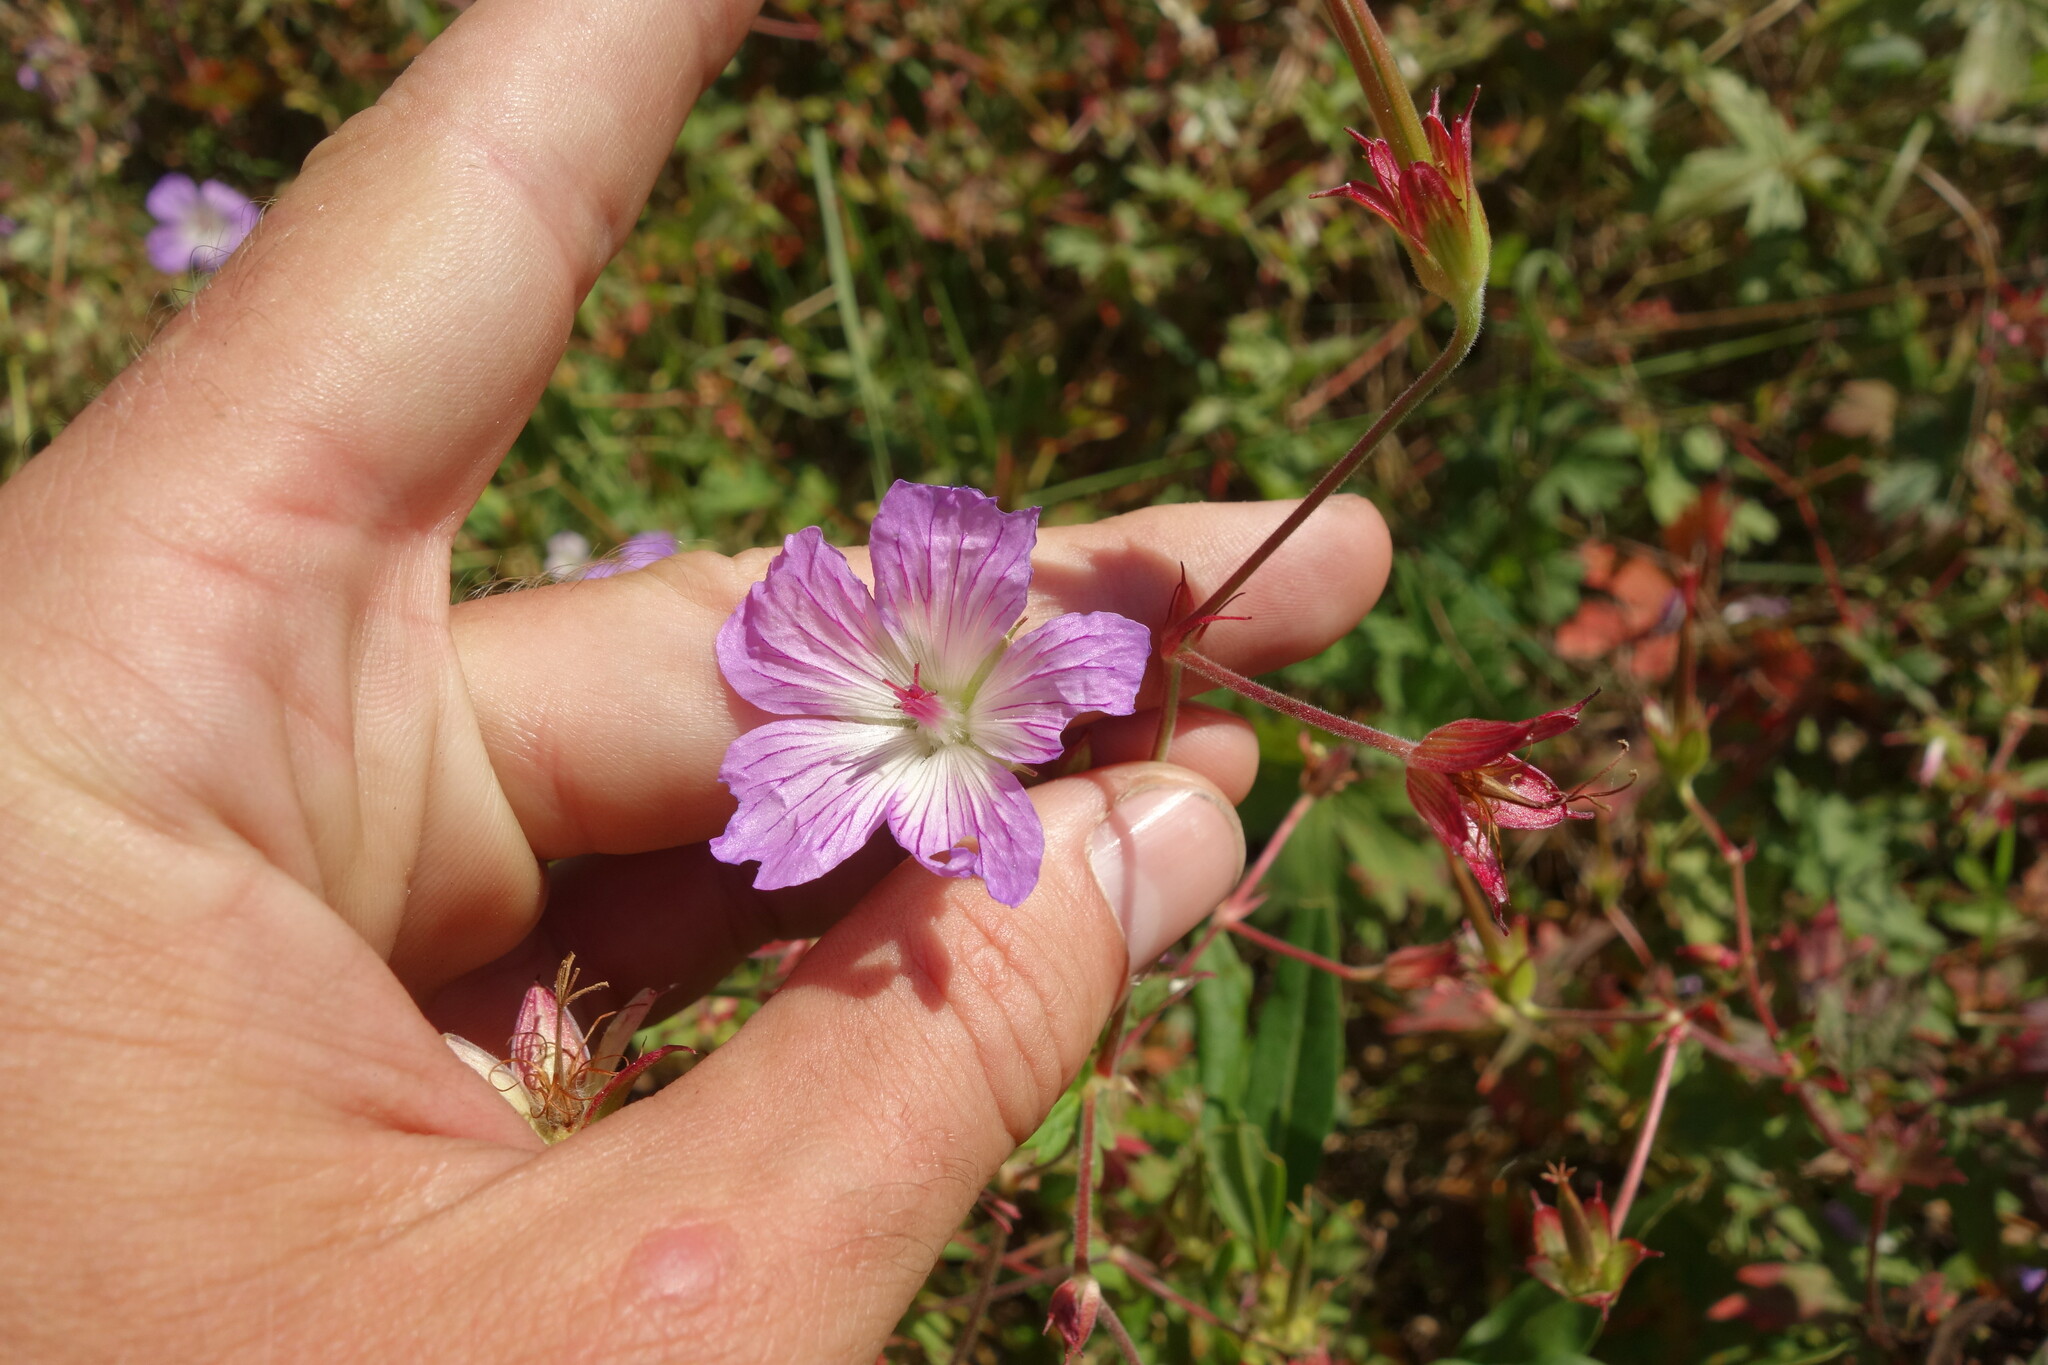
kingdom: Plantae
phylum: Tracheophyta
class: Magnoliopsida
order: Geraniales
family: Geraniaceae
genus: Geranium
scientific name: Geranium wlassovianum
